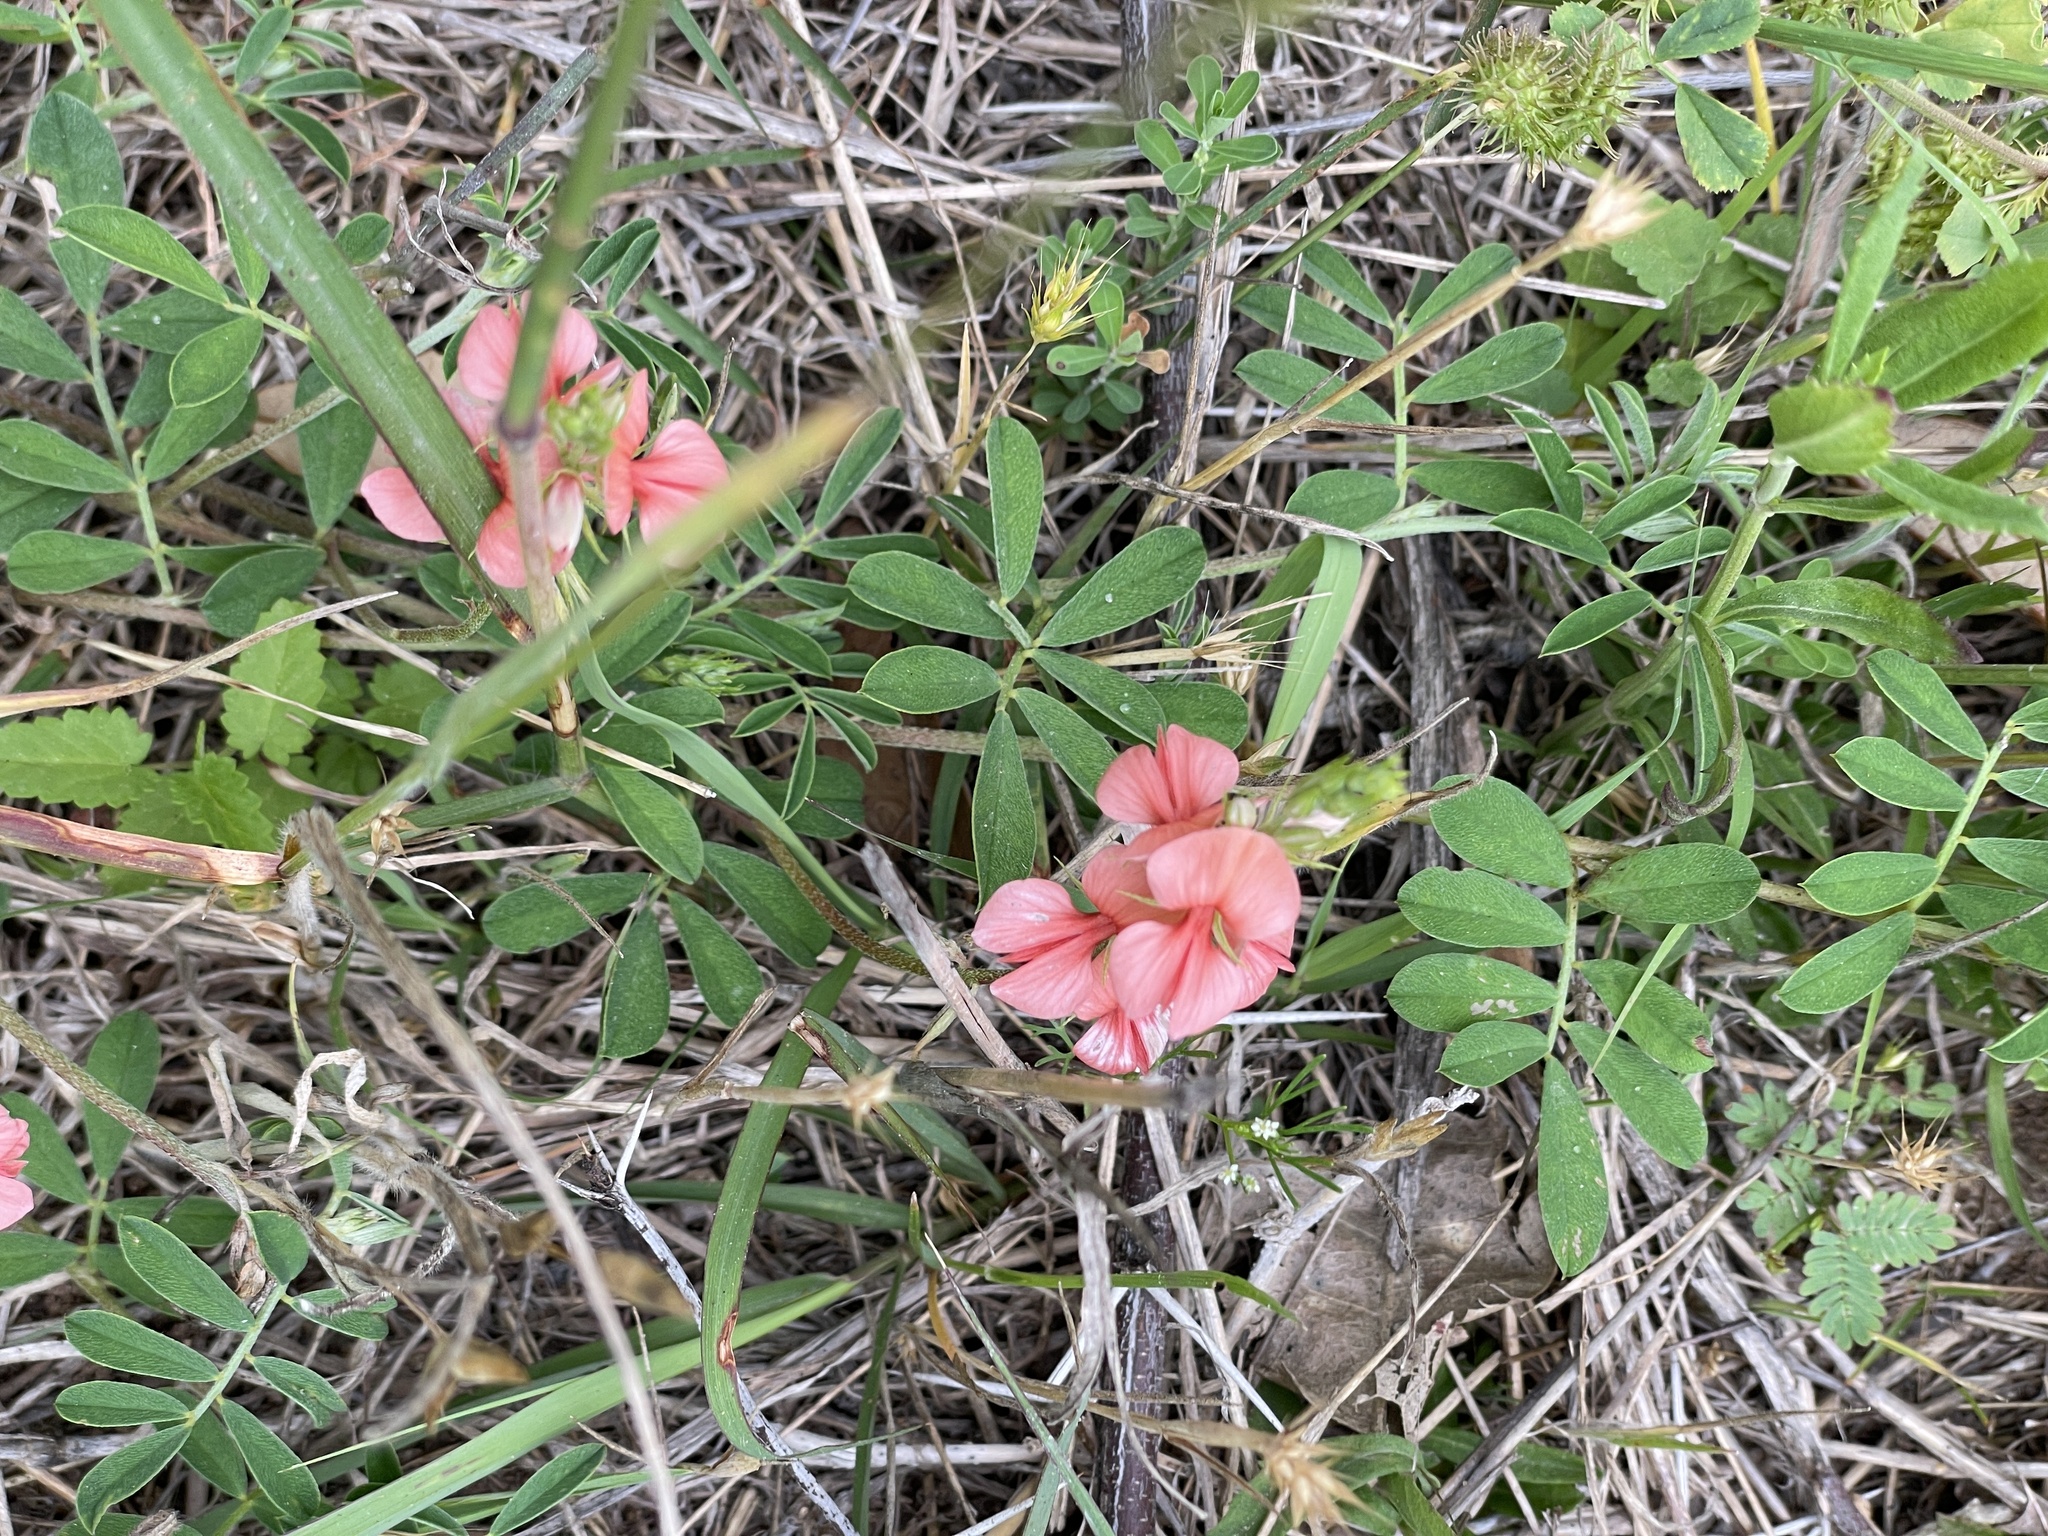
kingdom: Plantae
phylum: Tracheophyta
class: Magnoliopsida
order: Fabales
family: Fabaceae
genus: Indigofera
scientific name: Indigofera miniata
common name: Coast indigo
